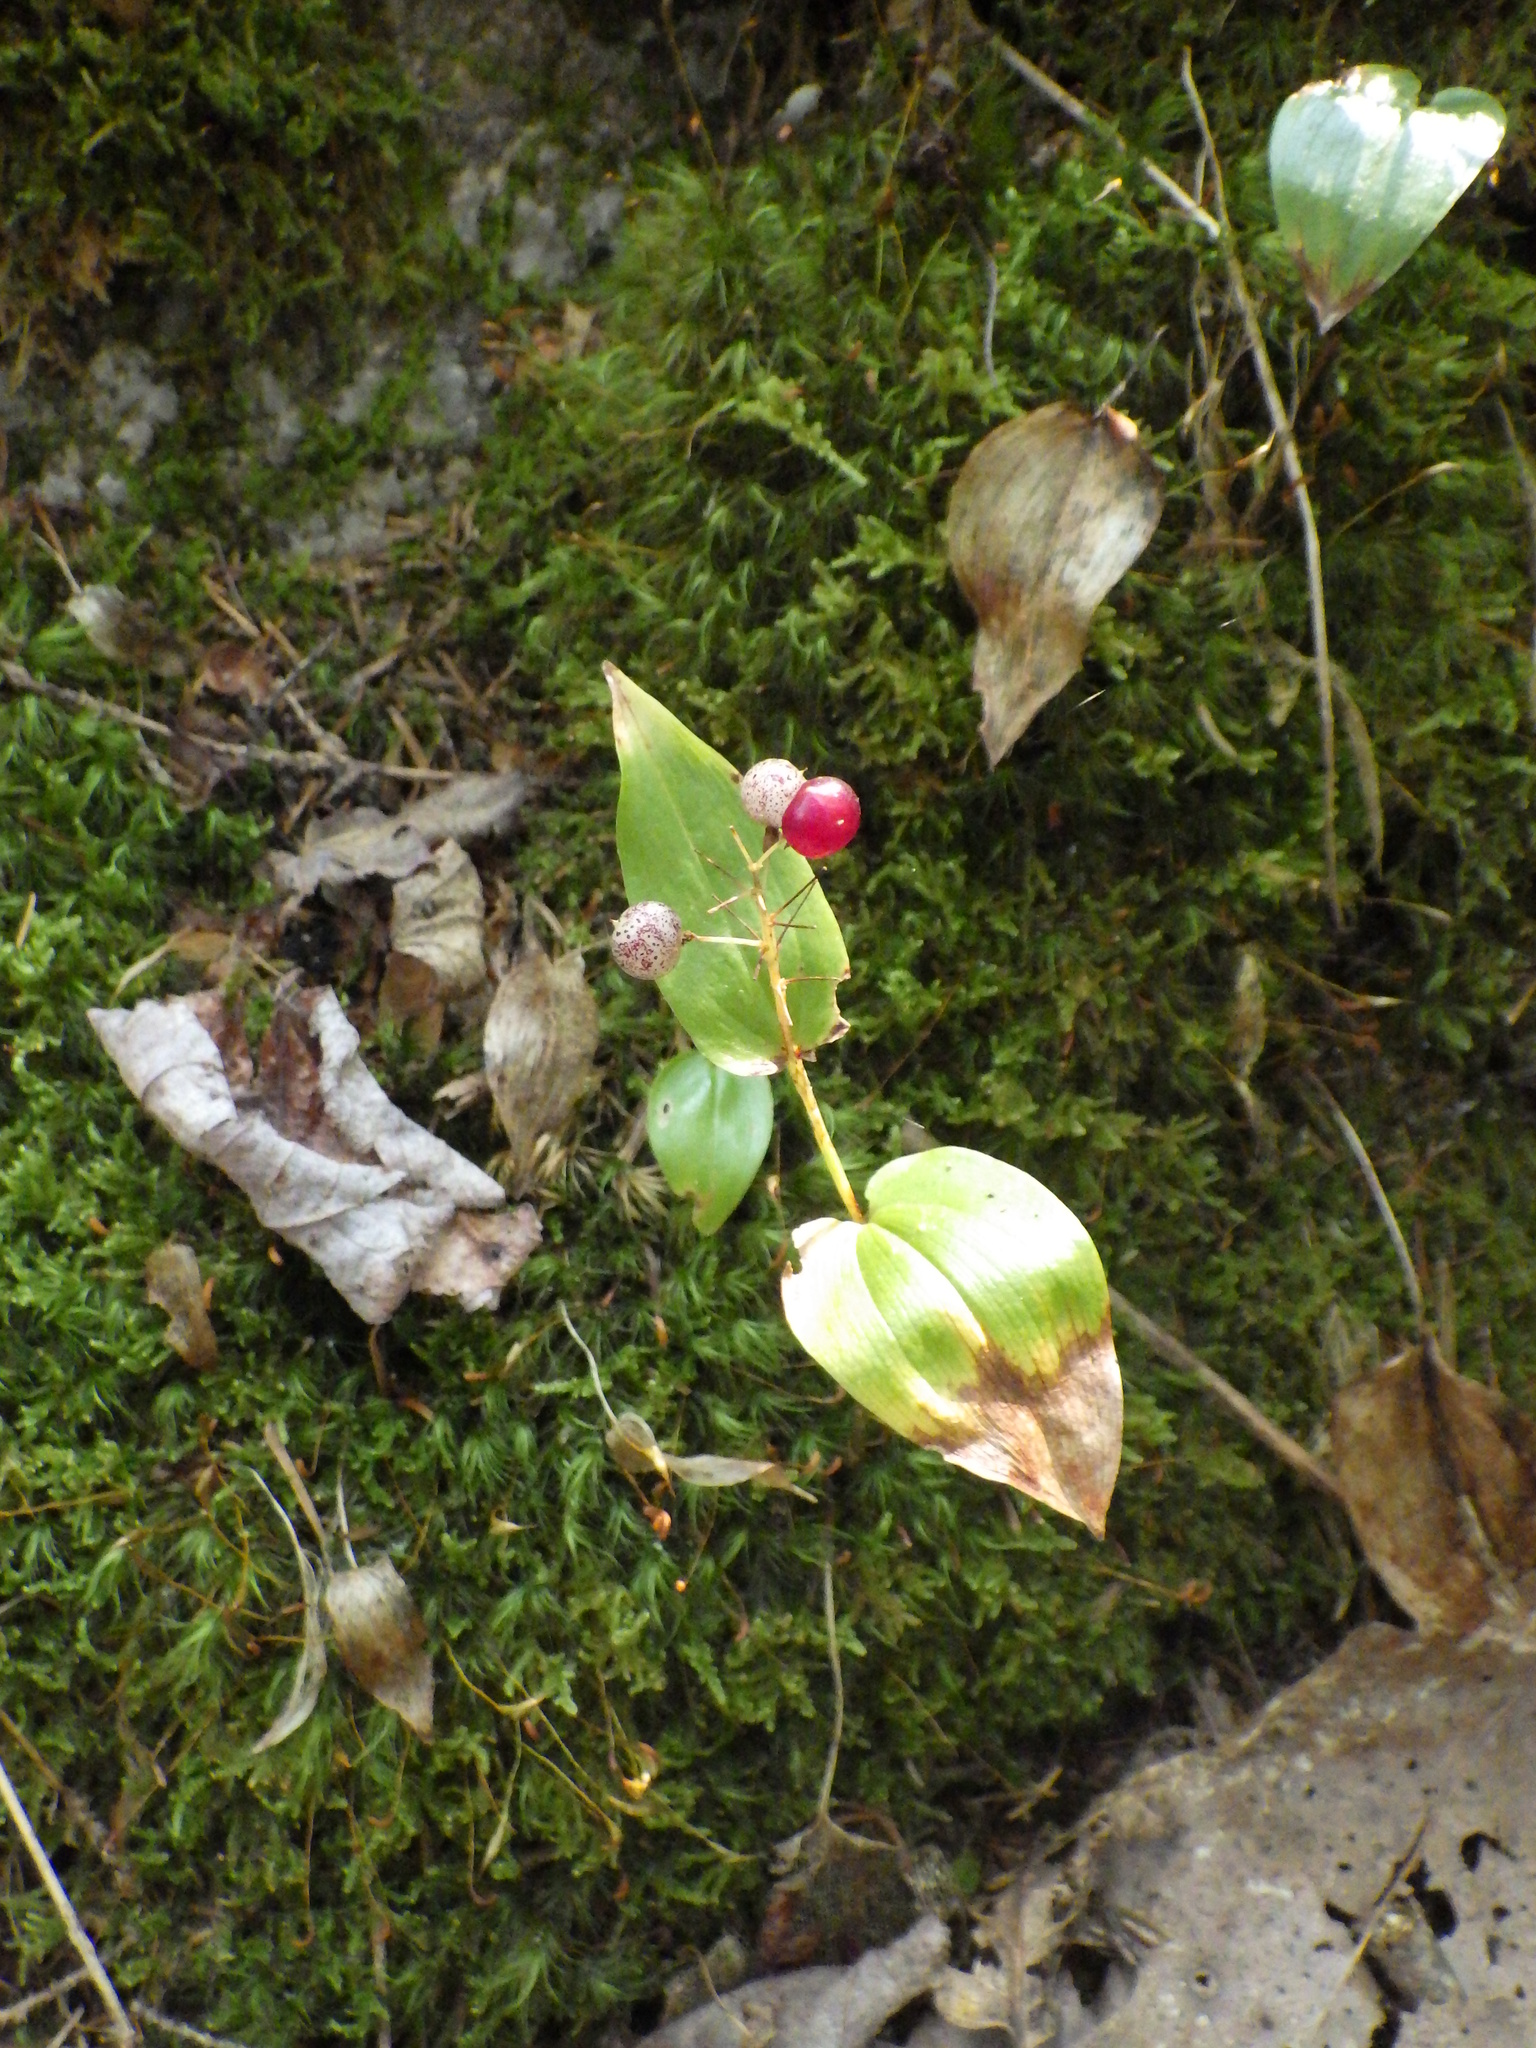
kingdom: Plantae
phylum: Tracheophyta
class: Liliopsida
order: Asparagales
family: Asparagaceae
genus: Maianthemum
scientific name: Maianthemum canadense
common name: False lily-of-the-valley
